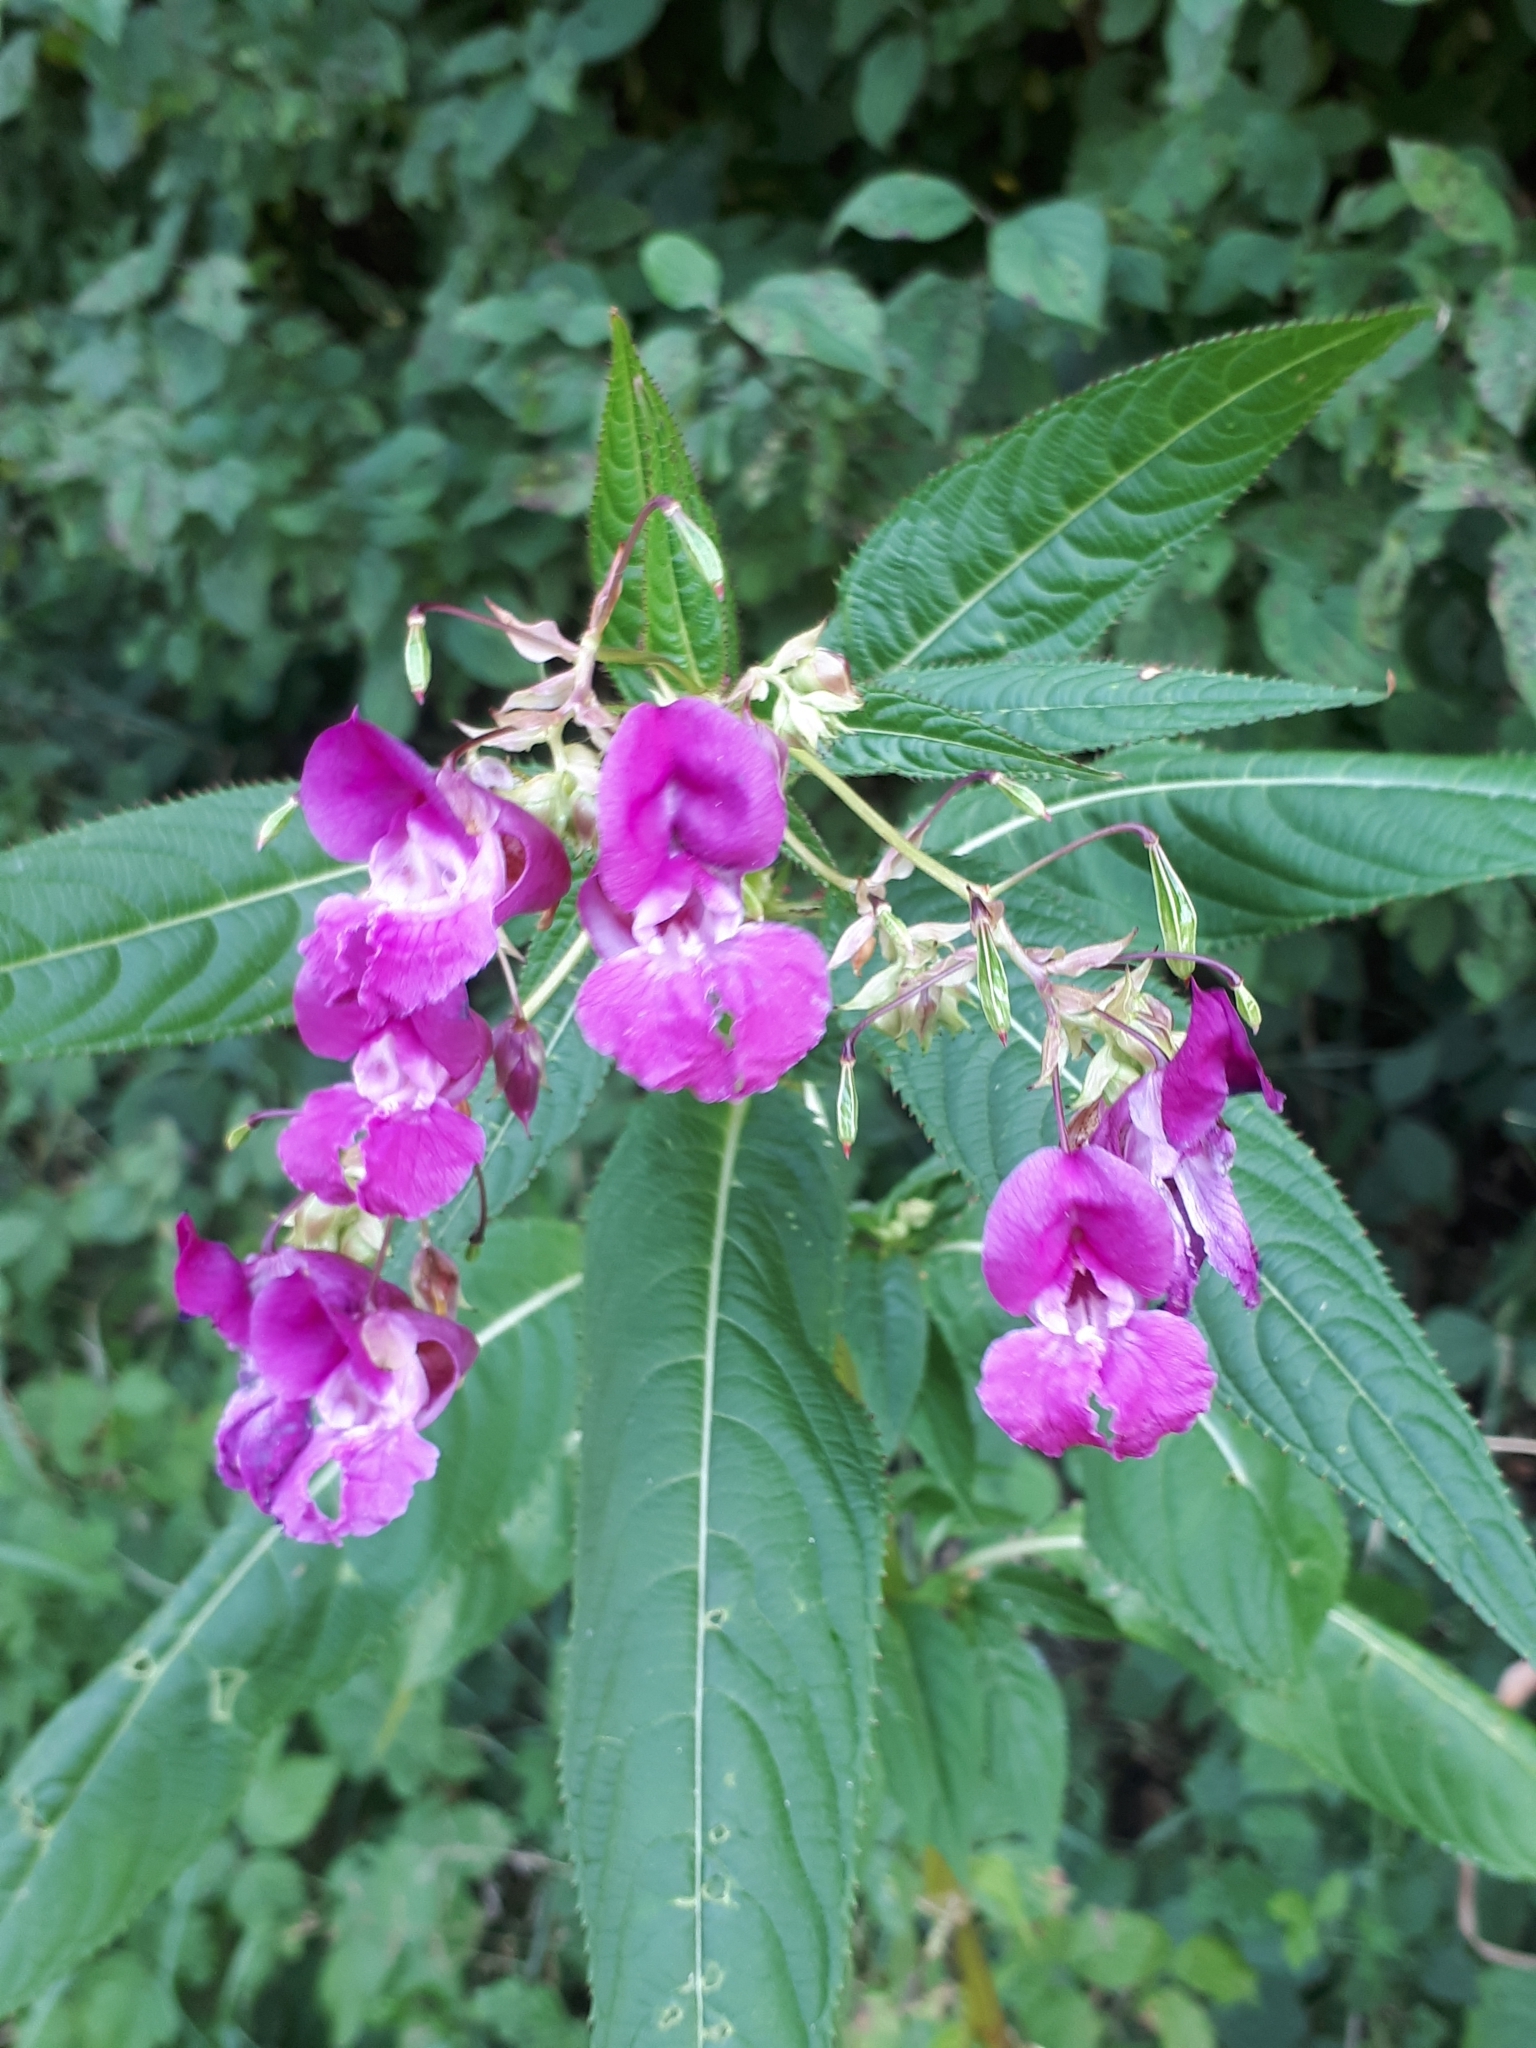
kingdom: Plantae
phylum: Tracheophyta
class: Magnoliopsida
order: Ericales
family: Balsaminaceae
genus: Impatiens
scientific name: Impatiens glandulifera
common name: Himalayan balsam
